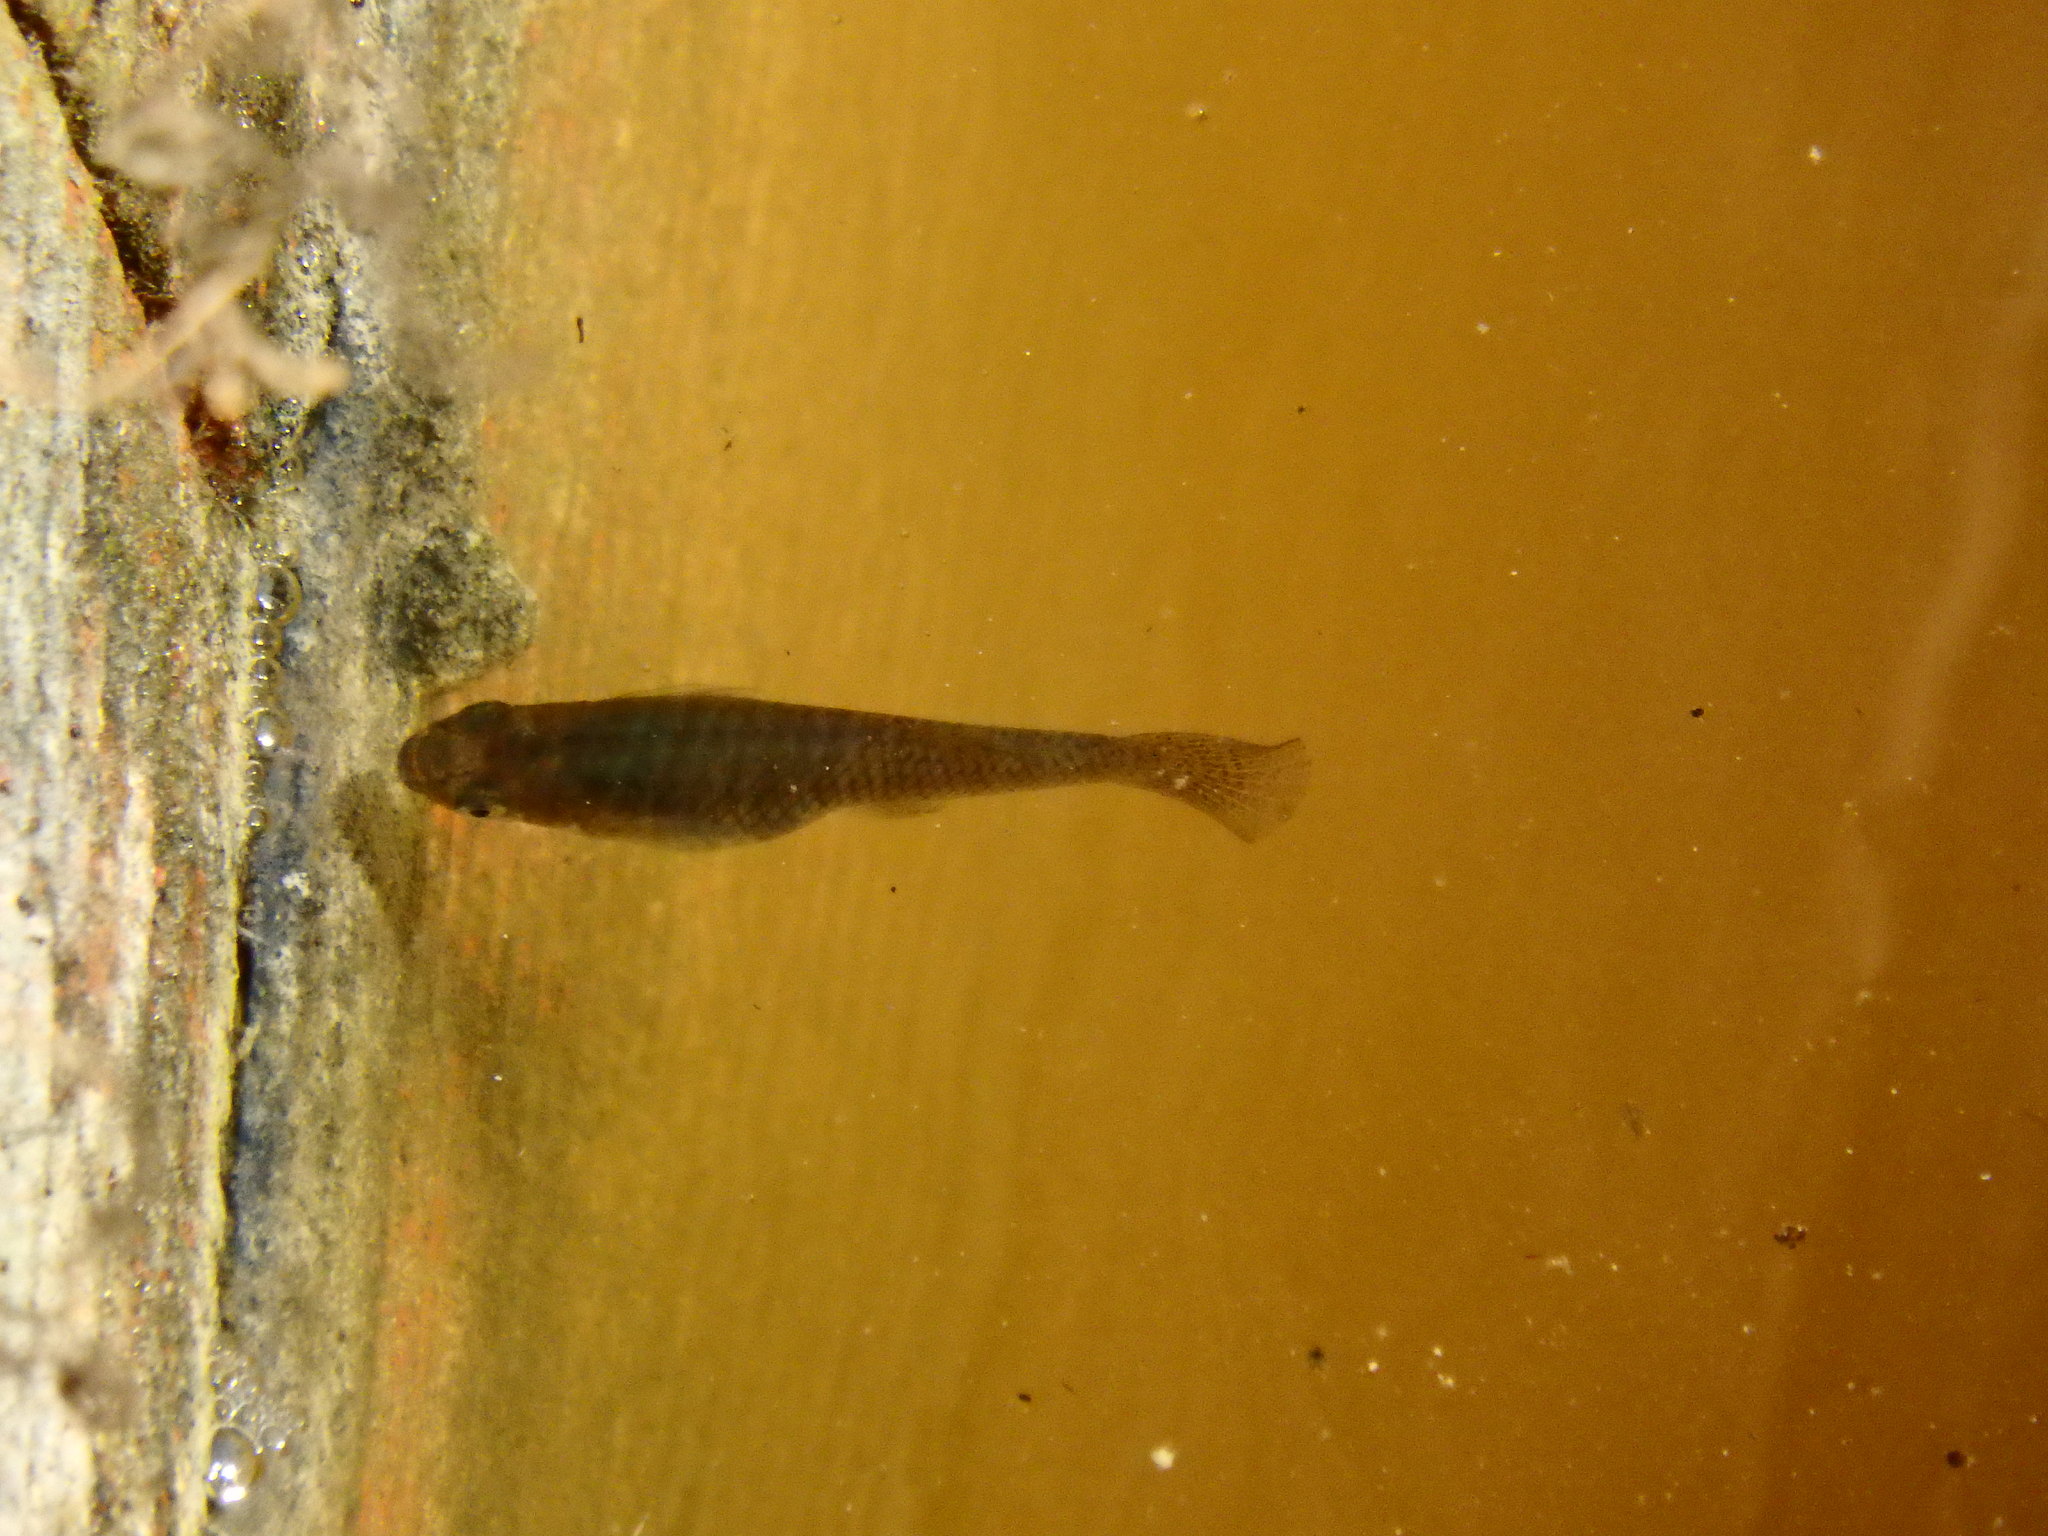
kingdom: Animalia
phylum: Chordata
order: Cyprinodontiformes
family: Poeciliidae
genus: Gambusia
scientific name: Gambusia holbrooki
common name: Eastern mosquitofish
